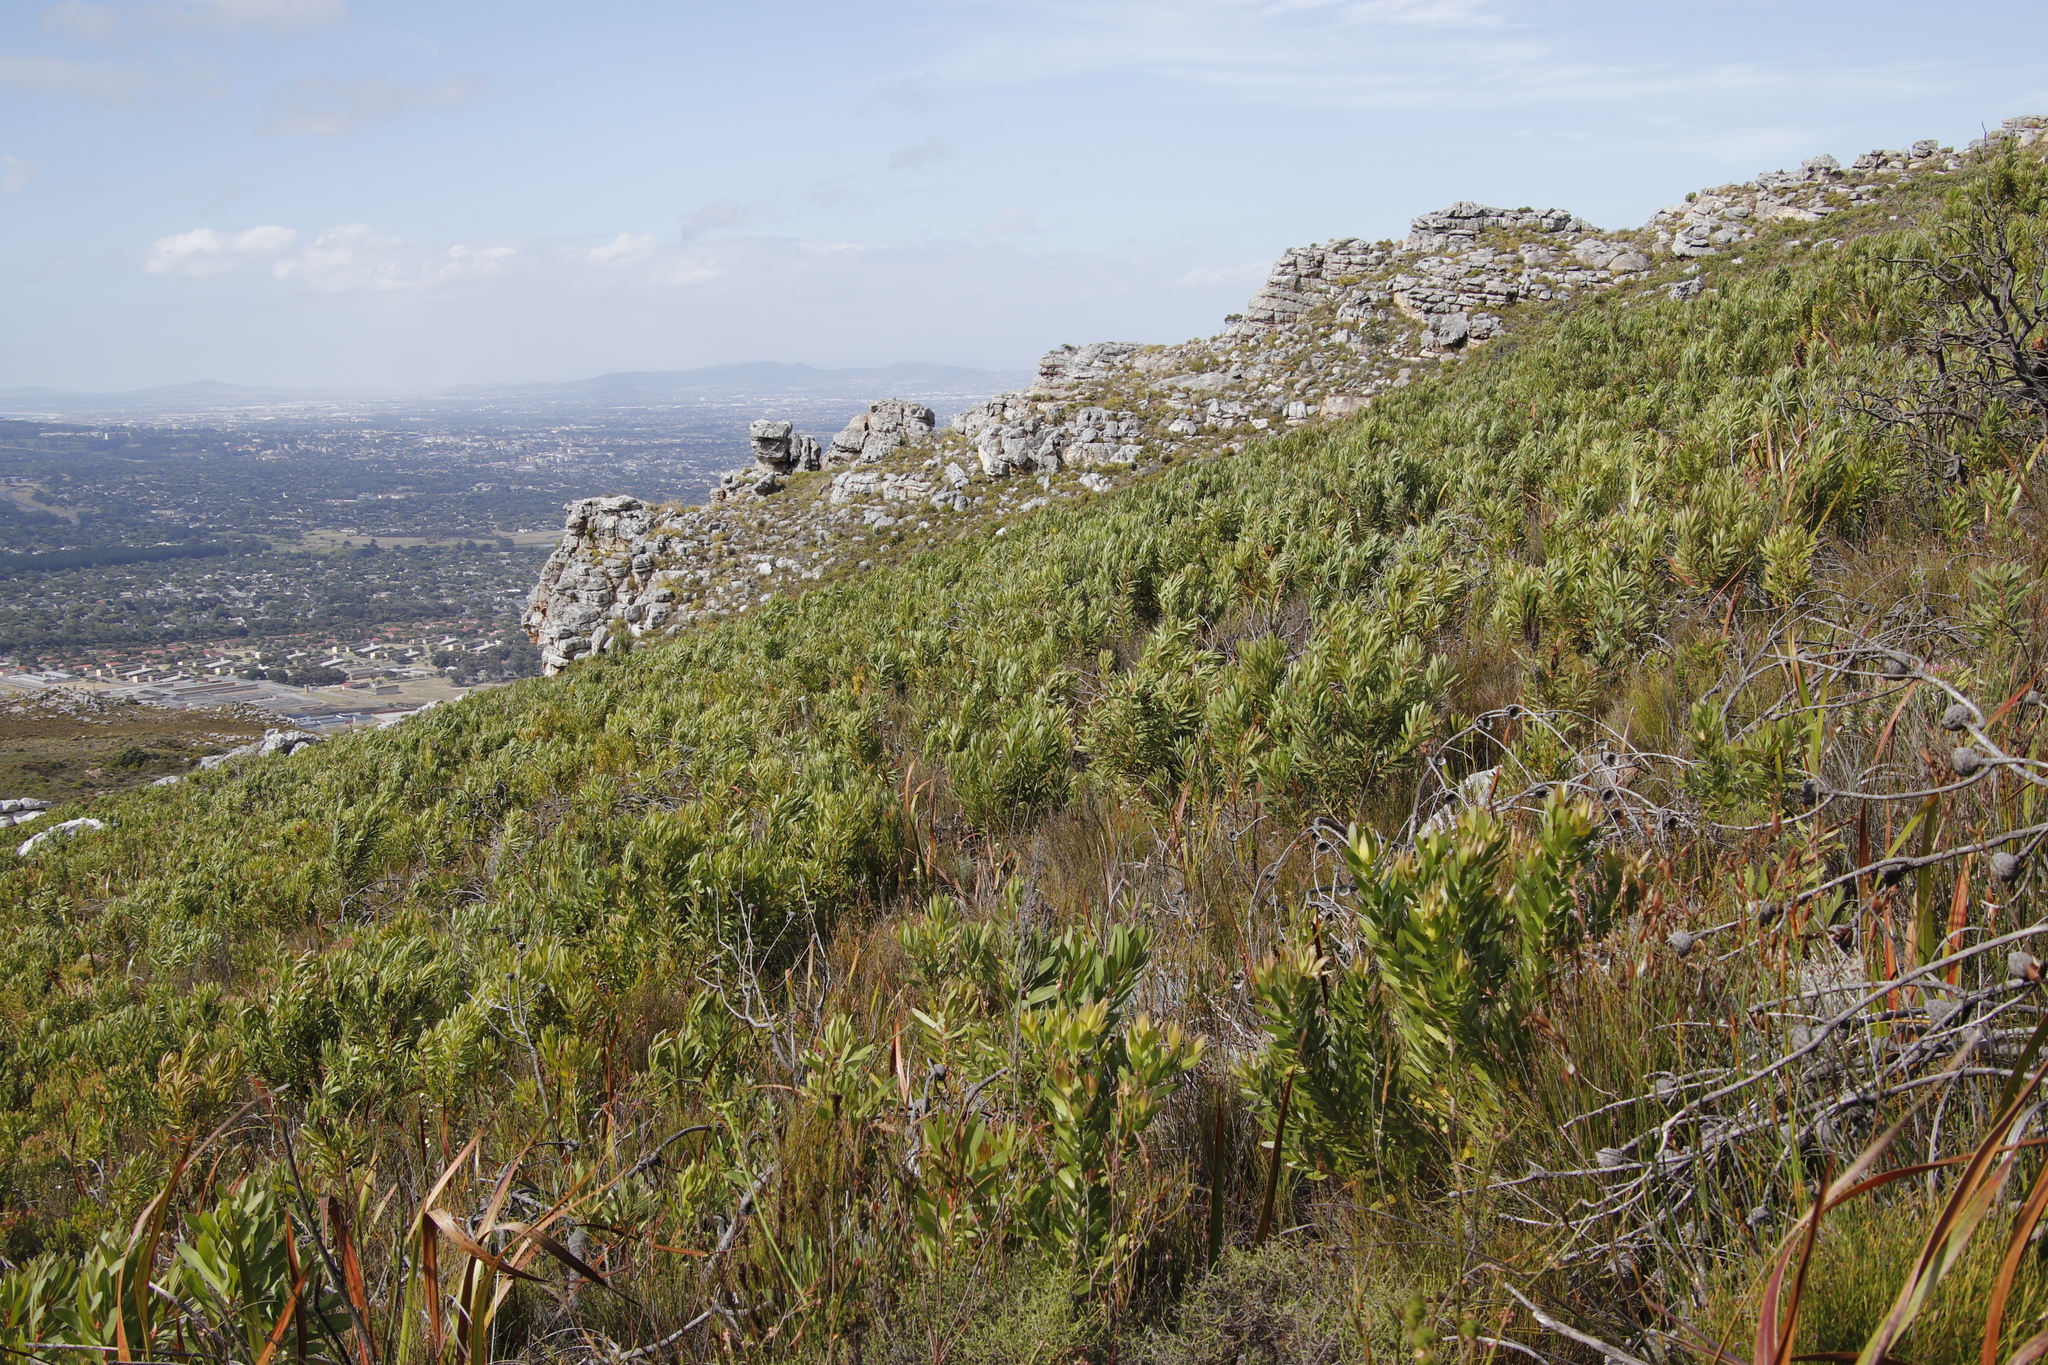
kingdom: Plantae
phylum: Tracheophyta
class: Magnoliopsida
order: Proteales
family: Proteaceae
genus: Protea
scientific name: Protea lepidocarpodendron
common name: Black-bearded protea
